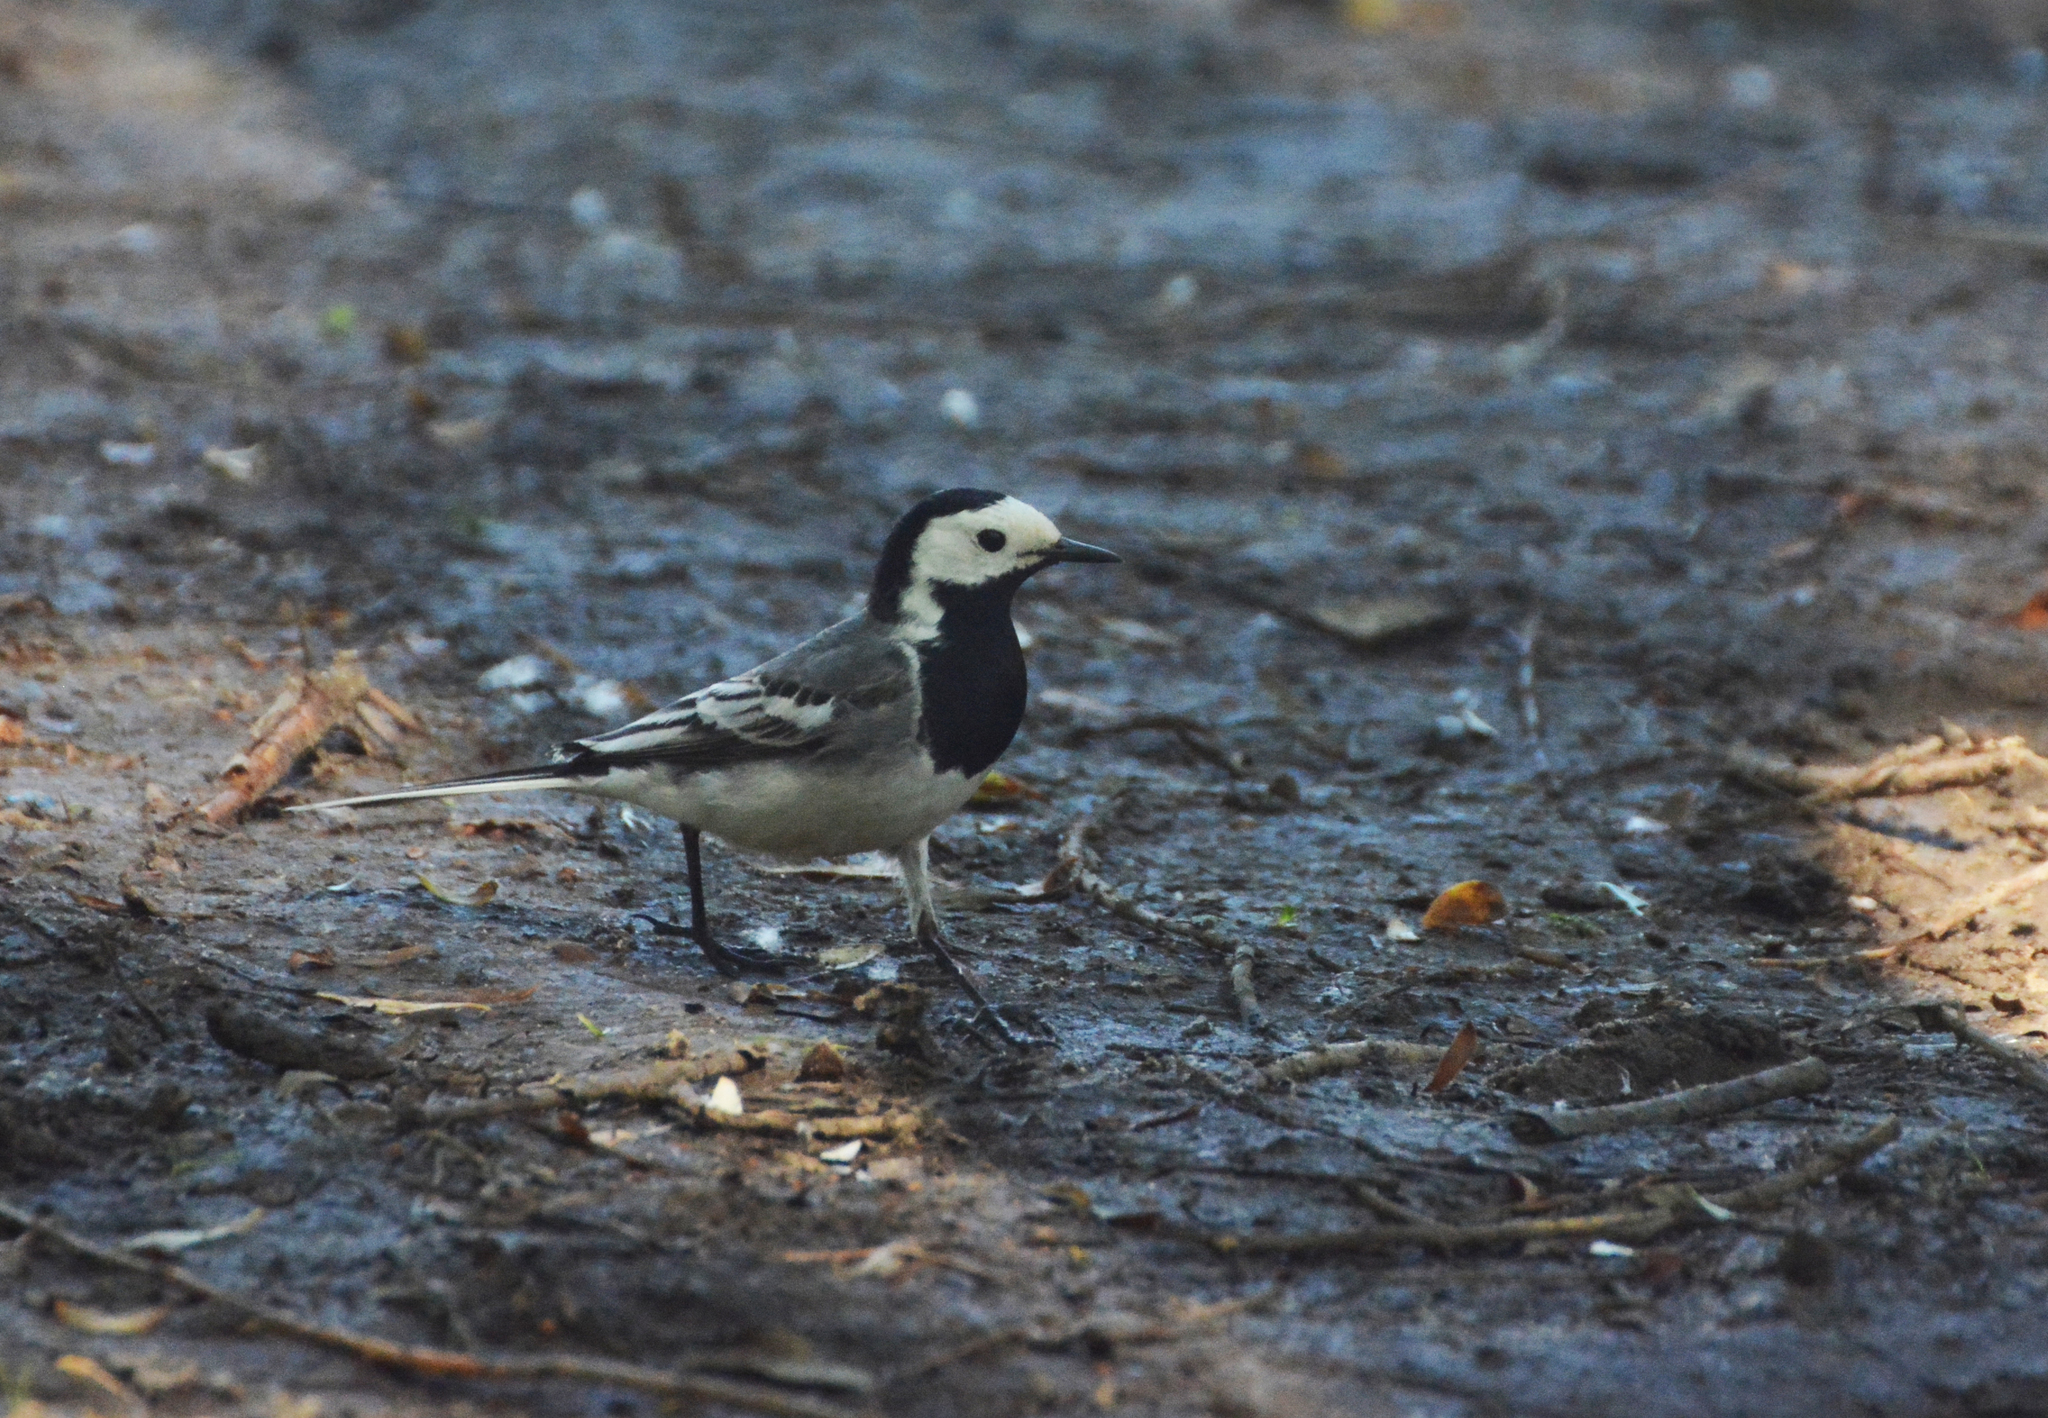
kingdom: Animalia
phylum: Chordata
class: Aves
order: Passeriformes
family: Motacillidae
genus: Motacilla
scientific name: Motacilla alba
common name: White wagtail
